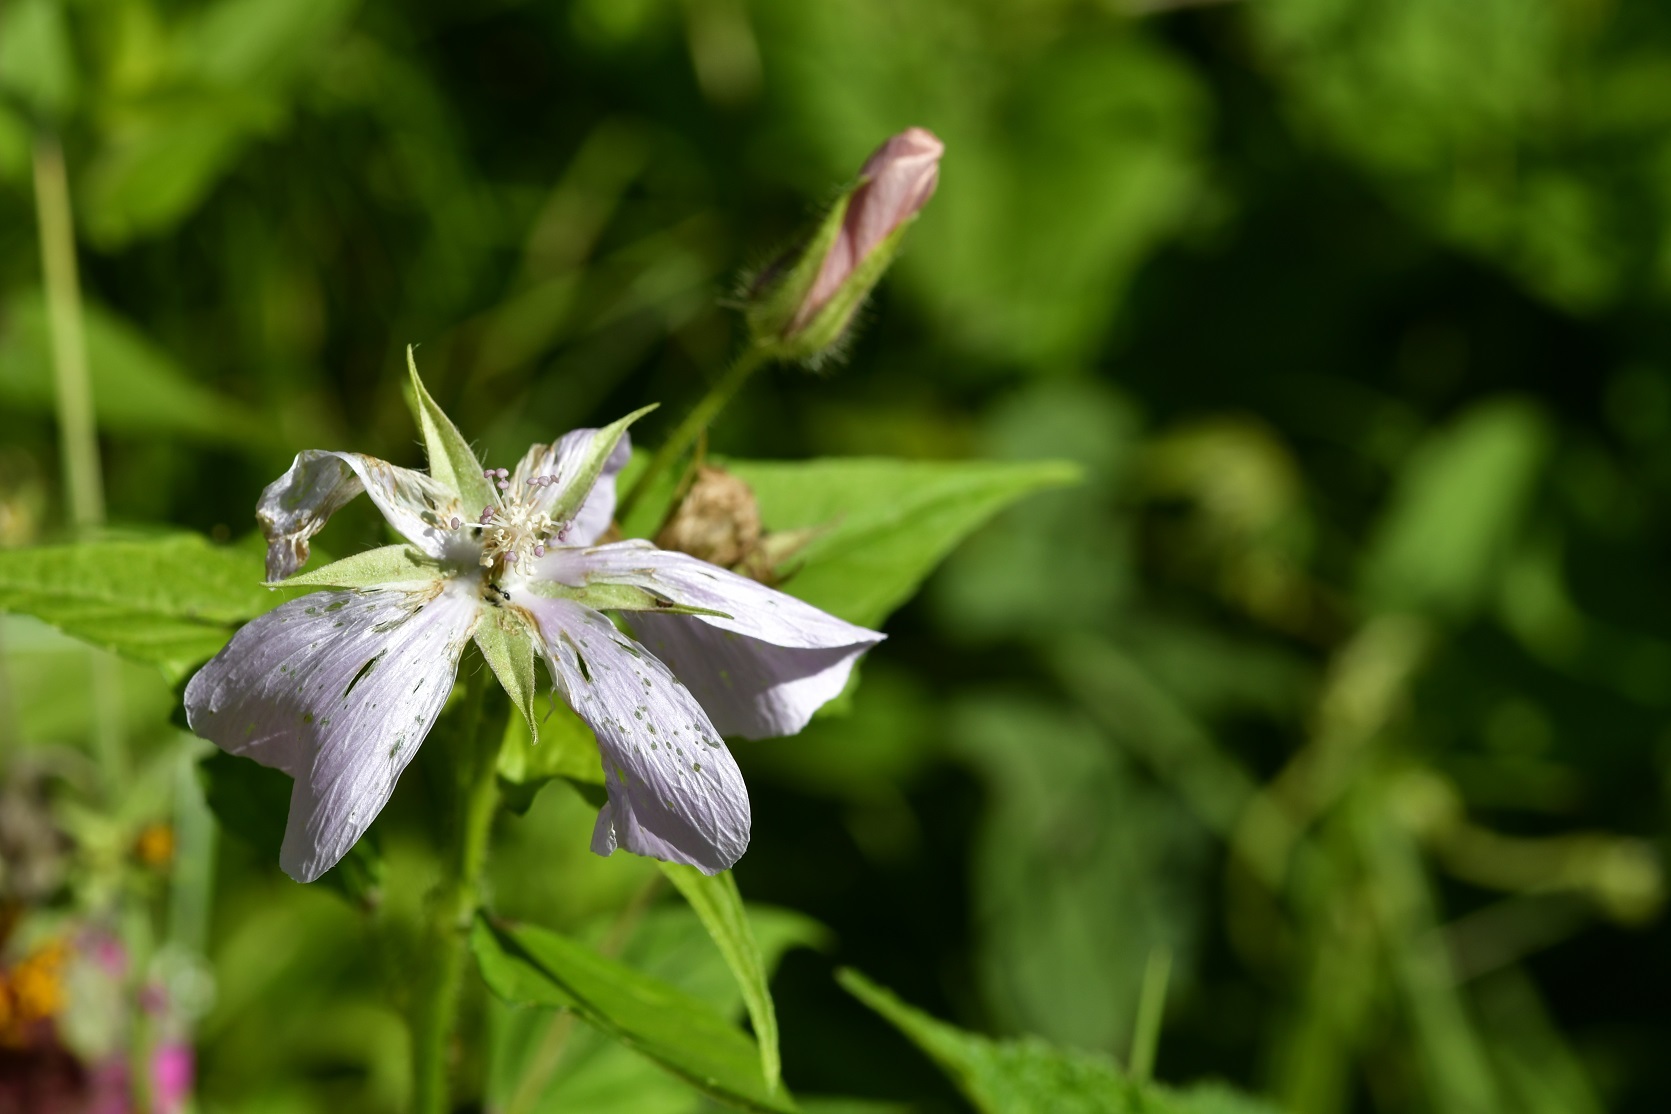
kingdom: Plantae
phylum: Tracheophyta
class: Magnoliopsida
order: Malvales
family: Malvaceae
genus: Anoda
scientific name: Anoda albiflora
